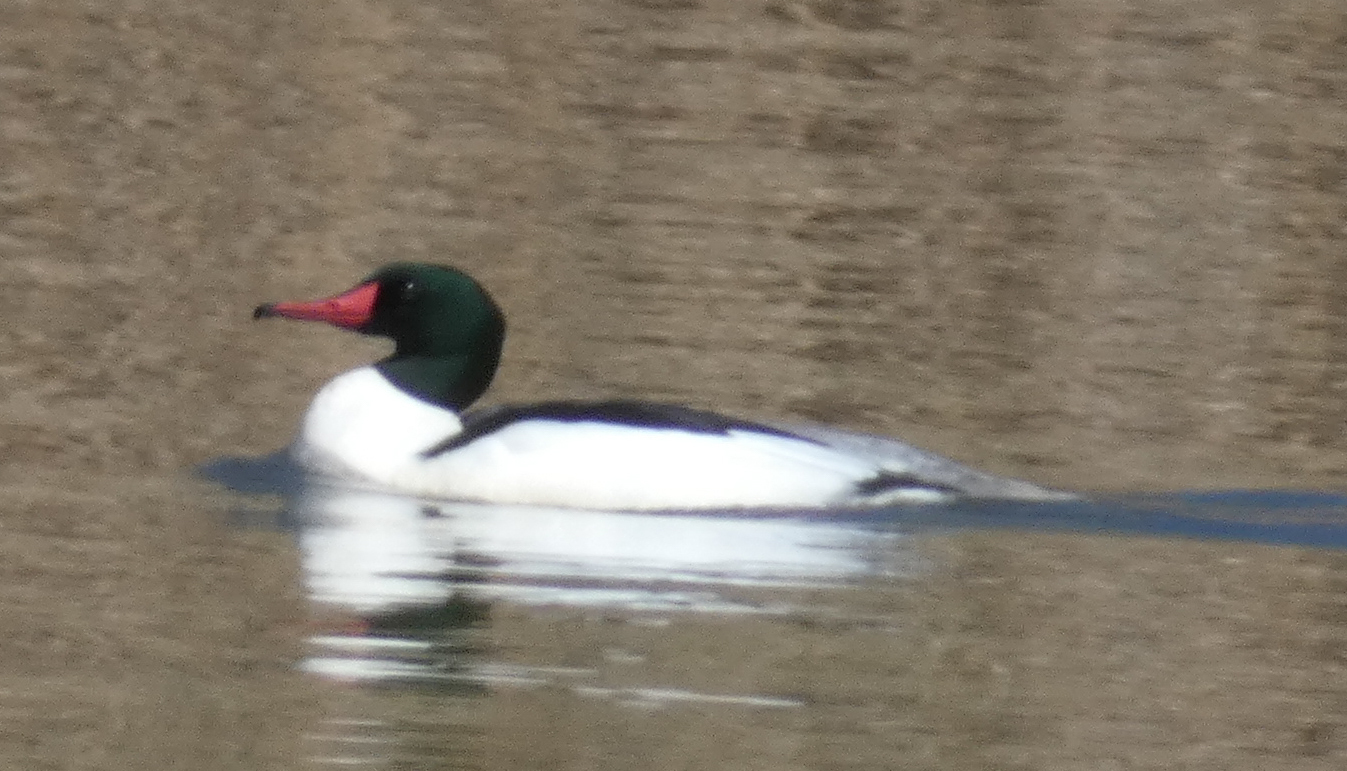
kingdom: Animalia
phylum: Chordata
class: Aves
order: Anseriformes
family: Anatidae
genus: Mergus
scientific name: Mergus merganser
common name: Common merganser
